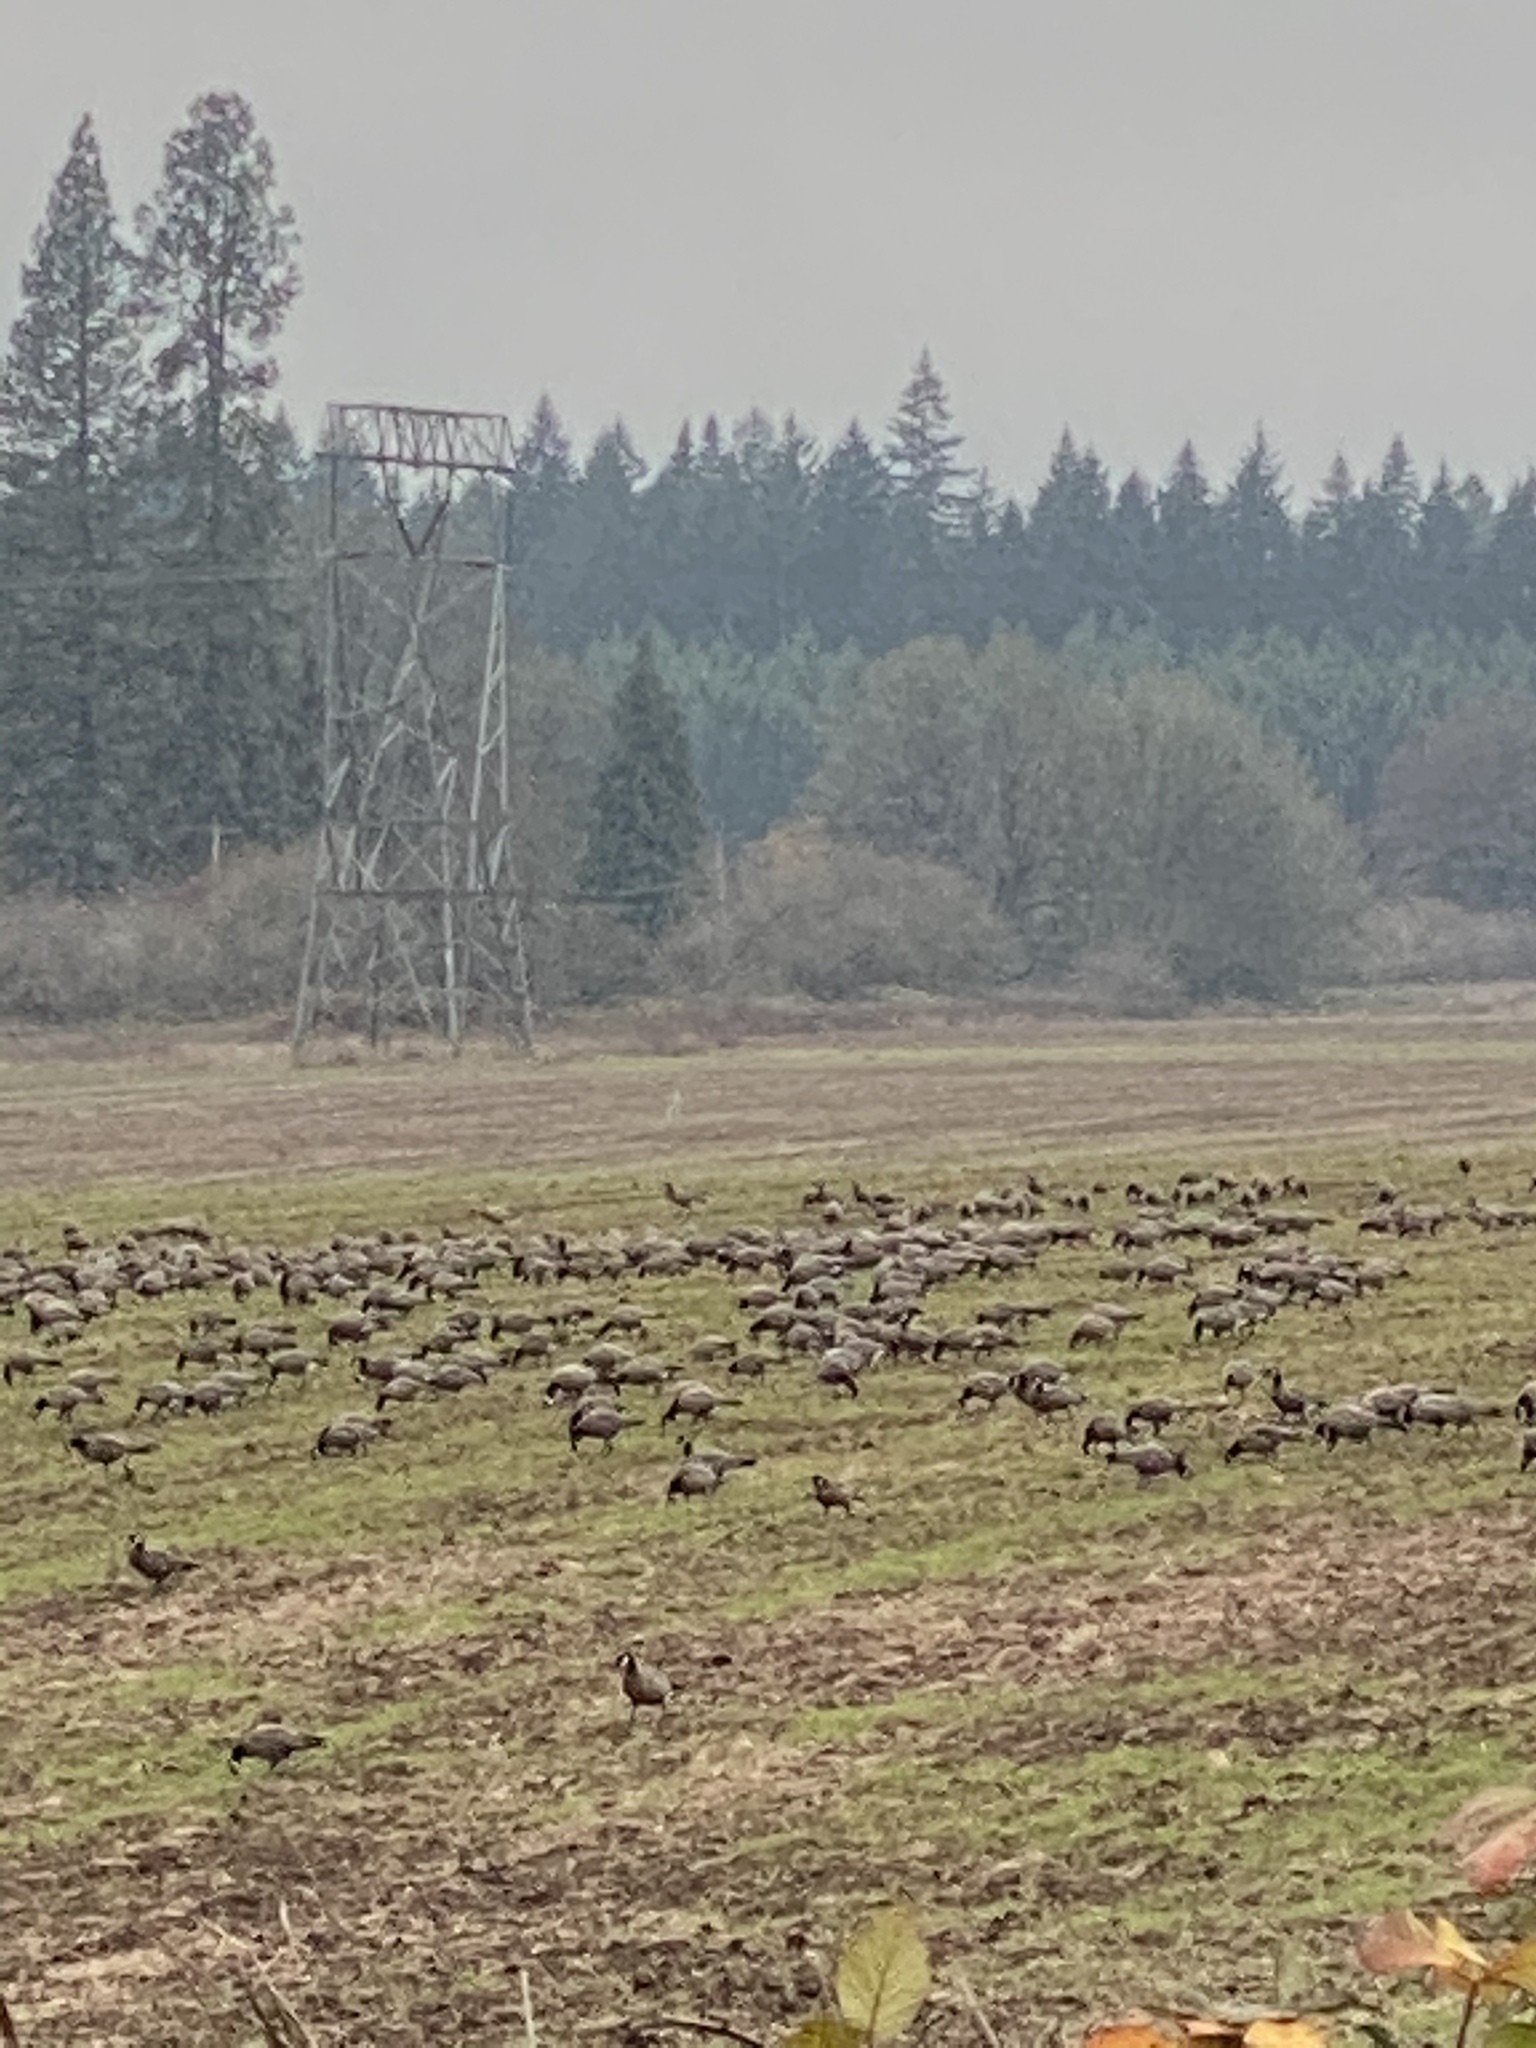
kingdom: Animalia
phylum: Chordata
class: Aves
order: Anseriformes
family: Anatidae
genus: Branta
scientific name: Branta hutchinsii
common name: Cackling goose
